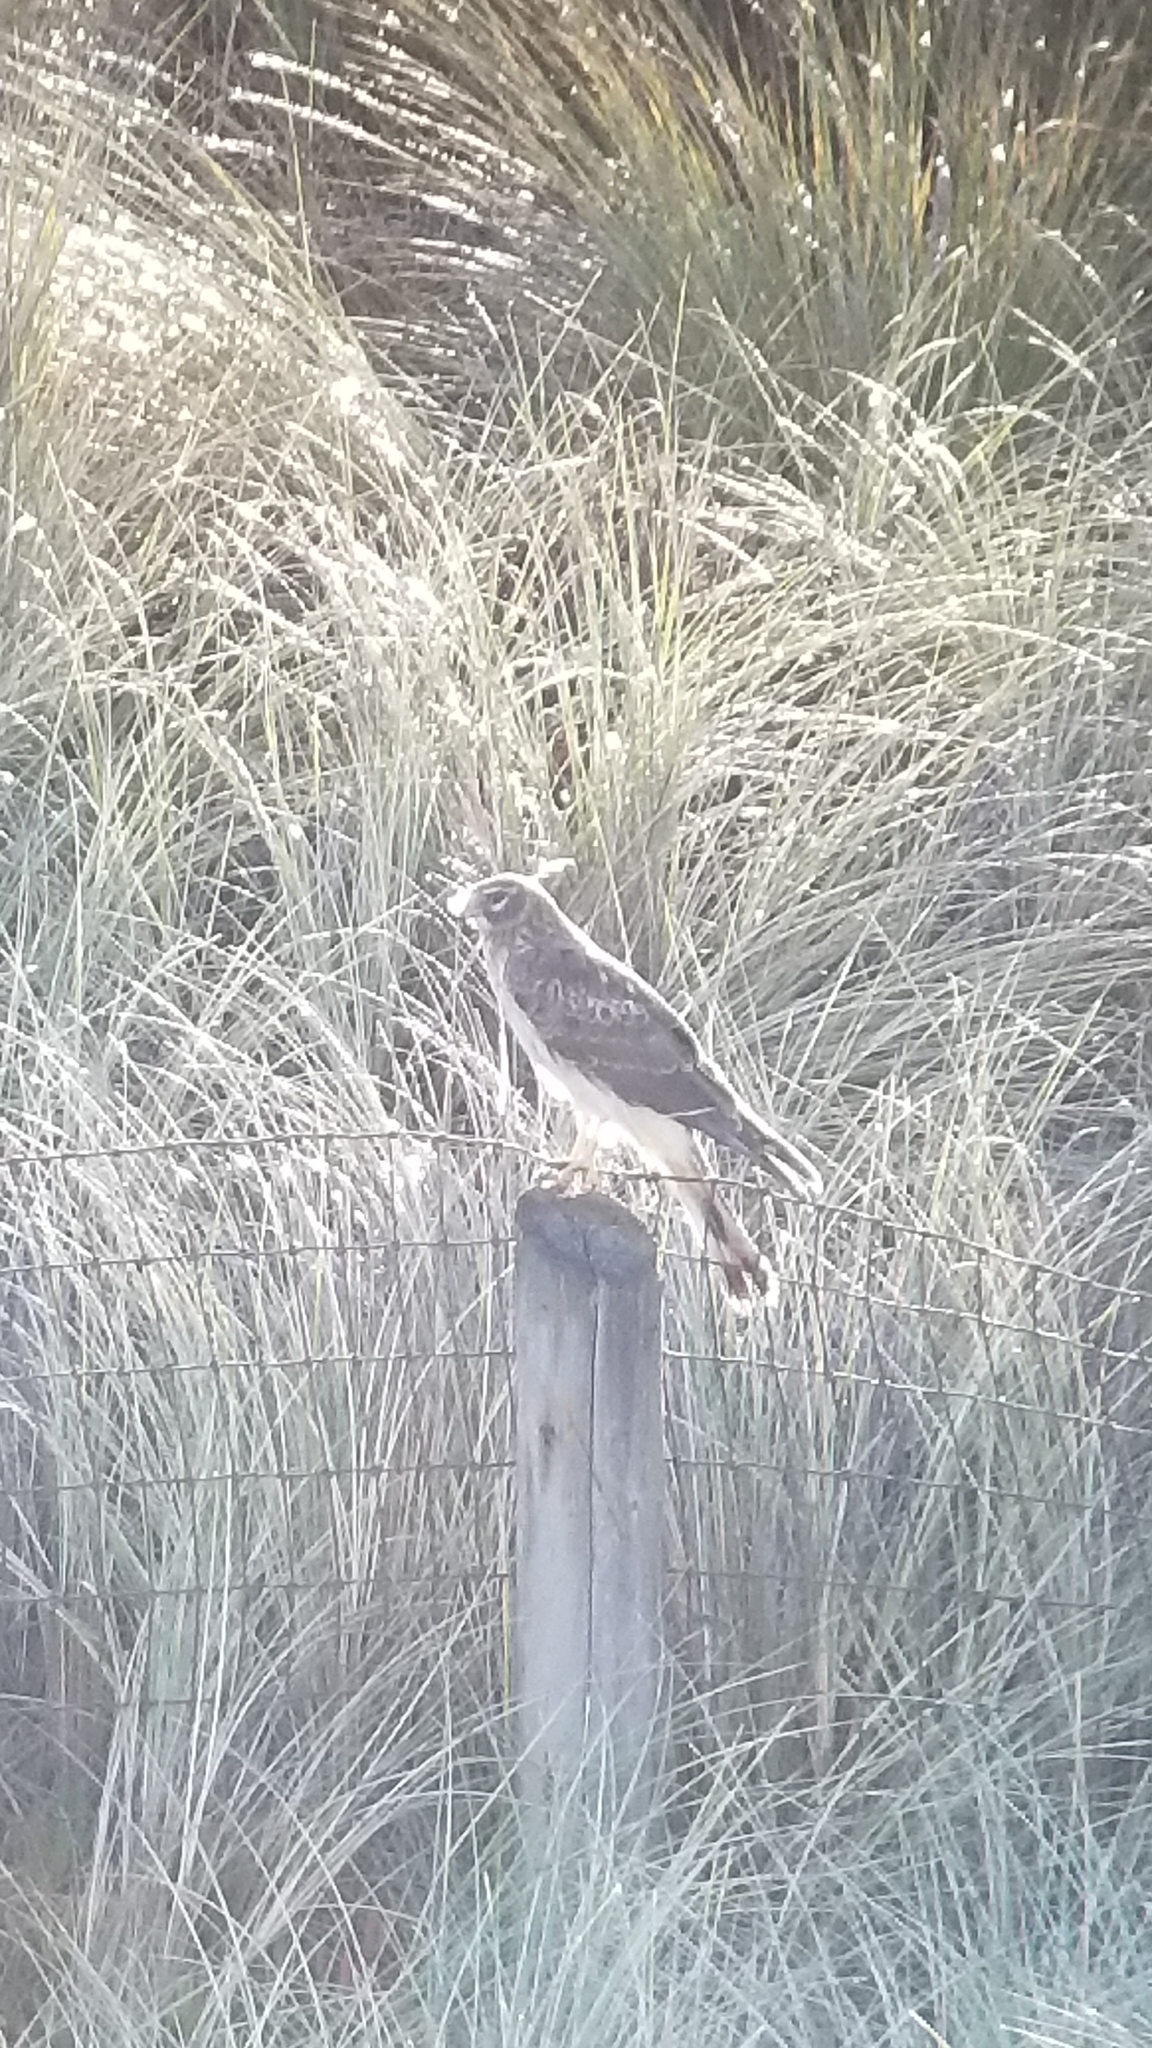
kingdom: Animalia
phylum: Chordata
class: Aves
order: Accipitriformes
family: Accipitridae
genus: Circus
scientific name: Circus cyaneus
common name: Hen harrier
